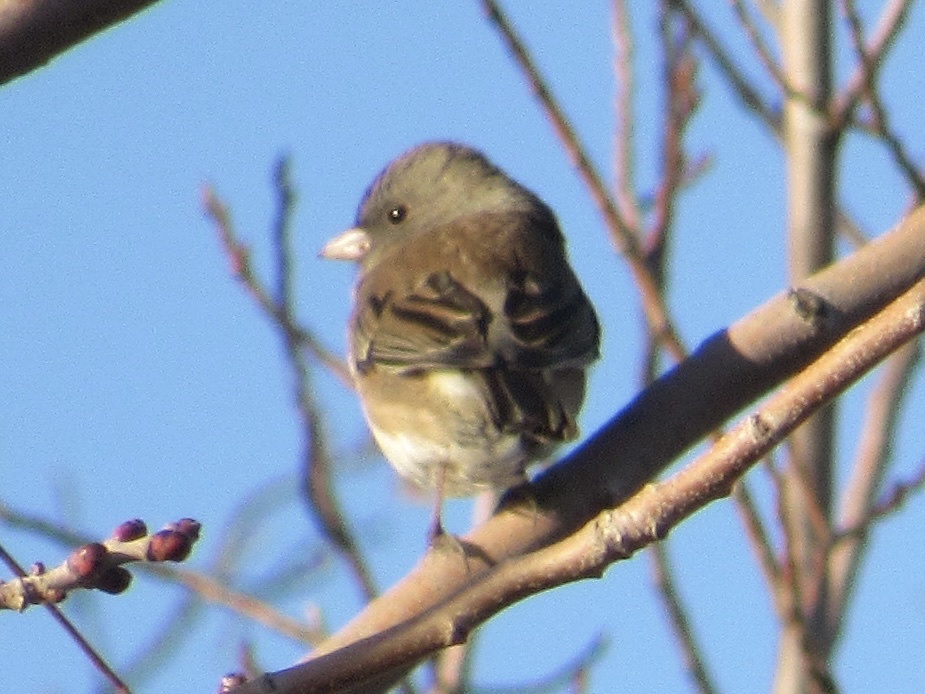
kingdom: Animalia
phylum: Chordata
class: Aves
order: Passeriformes
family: Passerellidae
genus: Junco
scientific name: Junco hyemalis
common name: Dark-eyed junco
